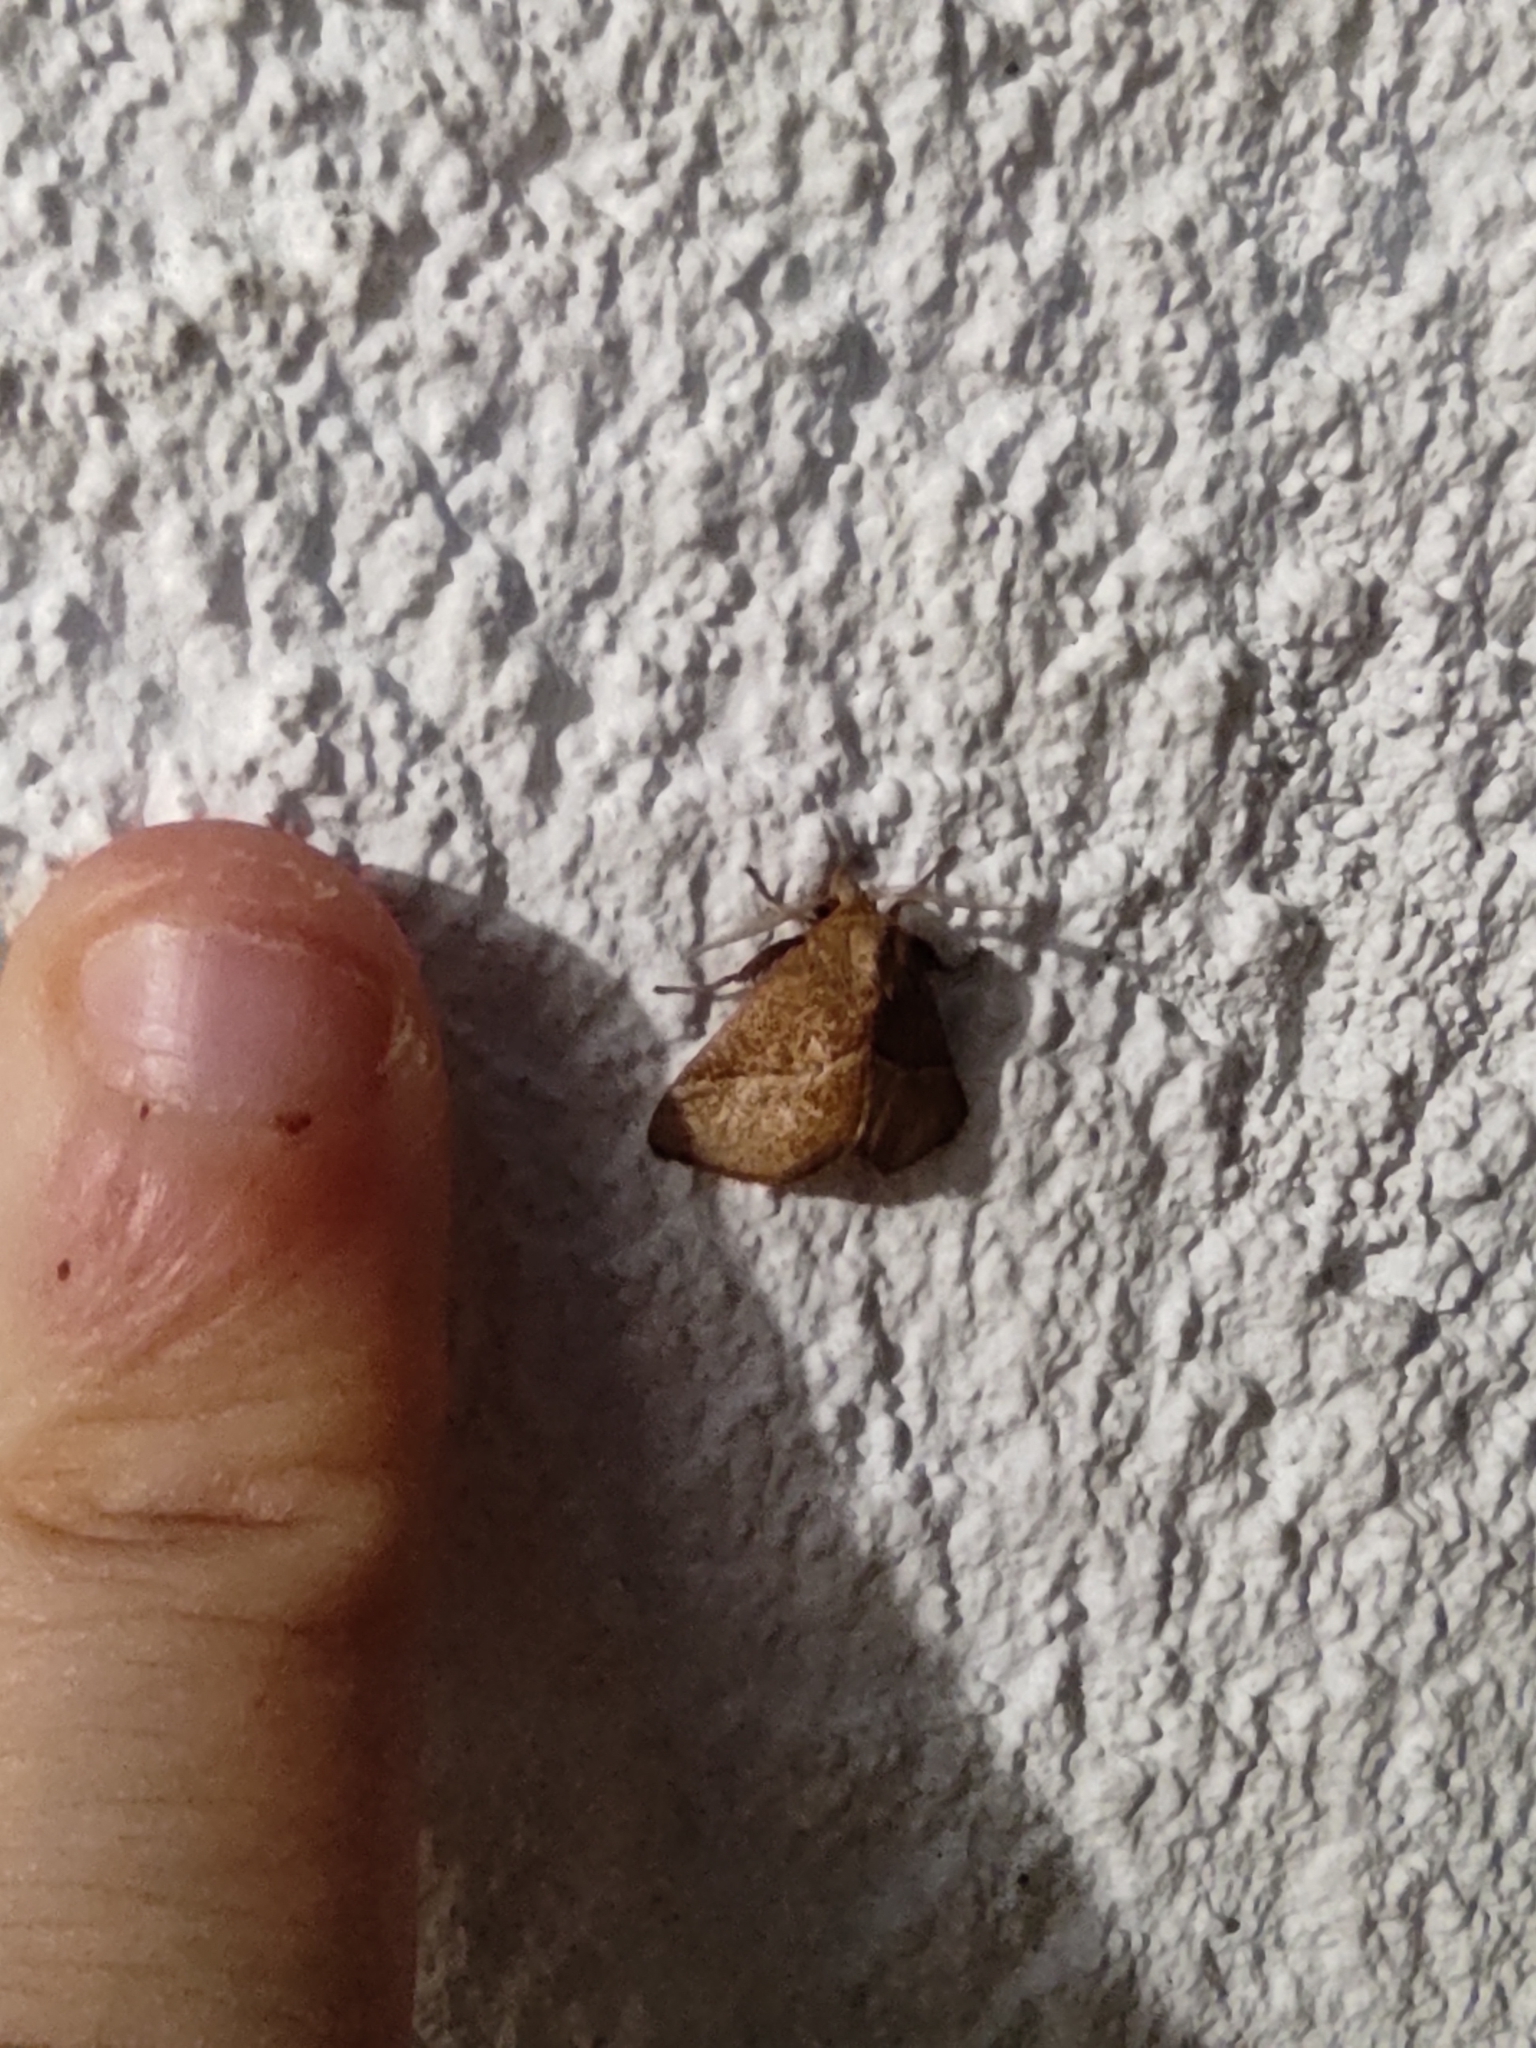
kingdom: Animalia
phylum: Arthropoda
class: Insecta
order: Lepidoptera
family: Limacodidae
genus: Platyprosterna
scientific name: Platyprosterna elaeetta
